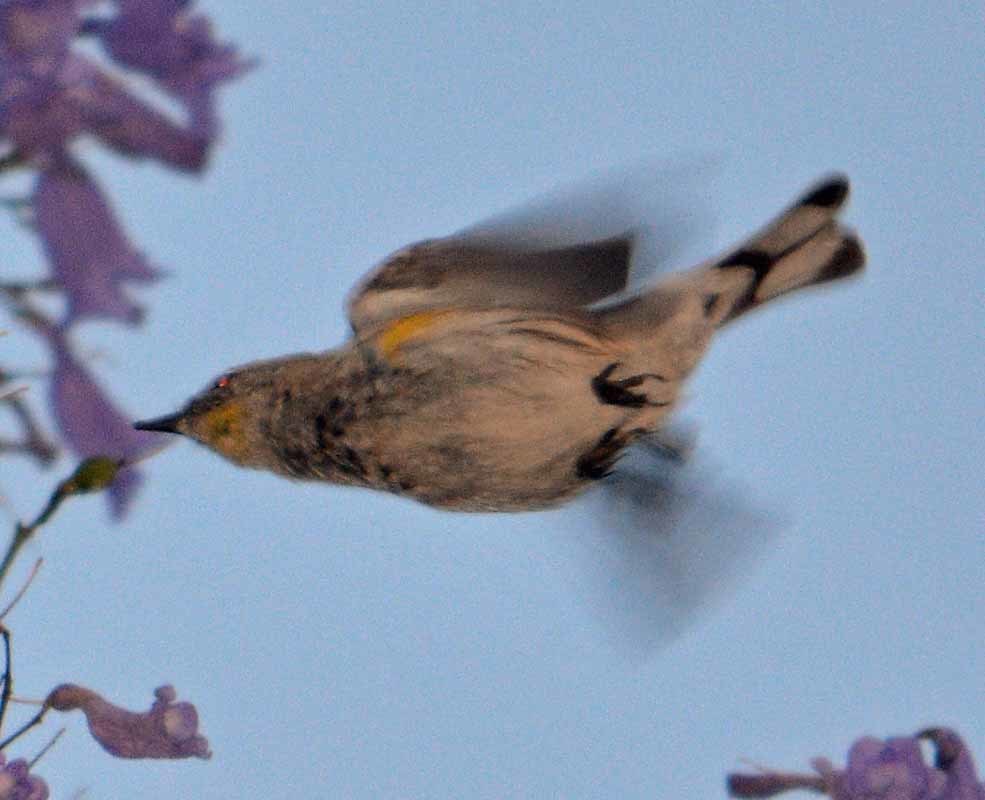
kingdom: Animalia
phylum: Chordata
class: Aves
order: Passeriformes
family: Parulidae
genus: Setophaga
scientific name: Setophaga coronata
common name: Myrtle warbler
